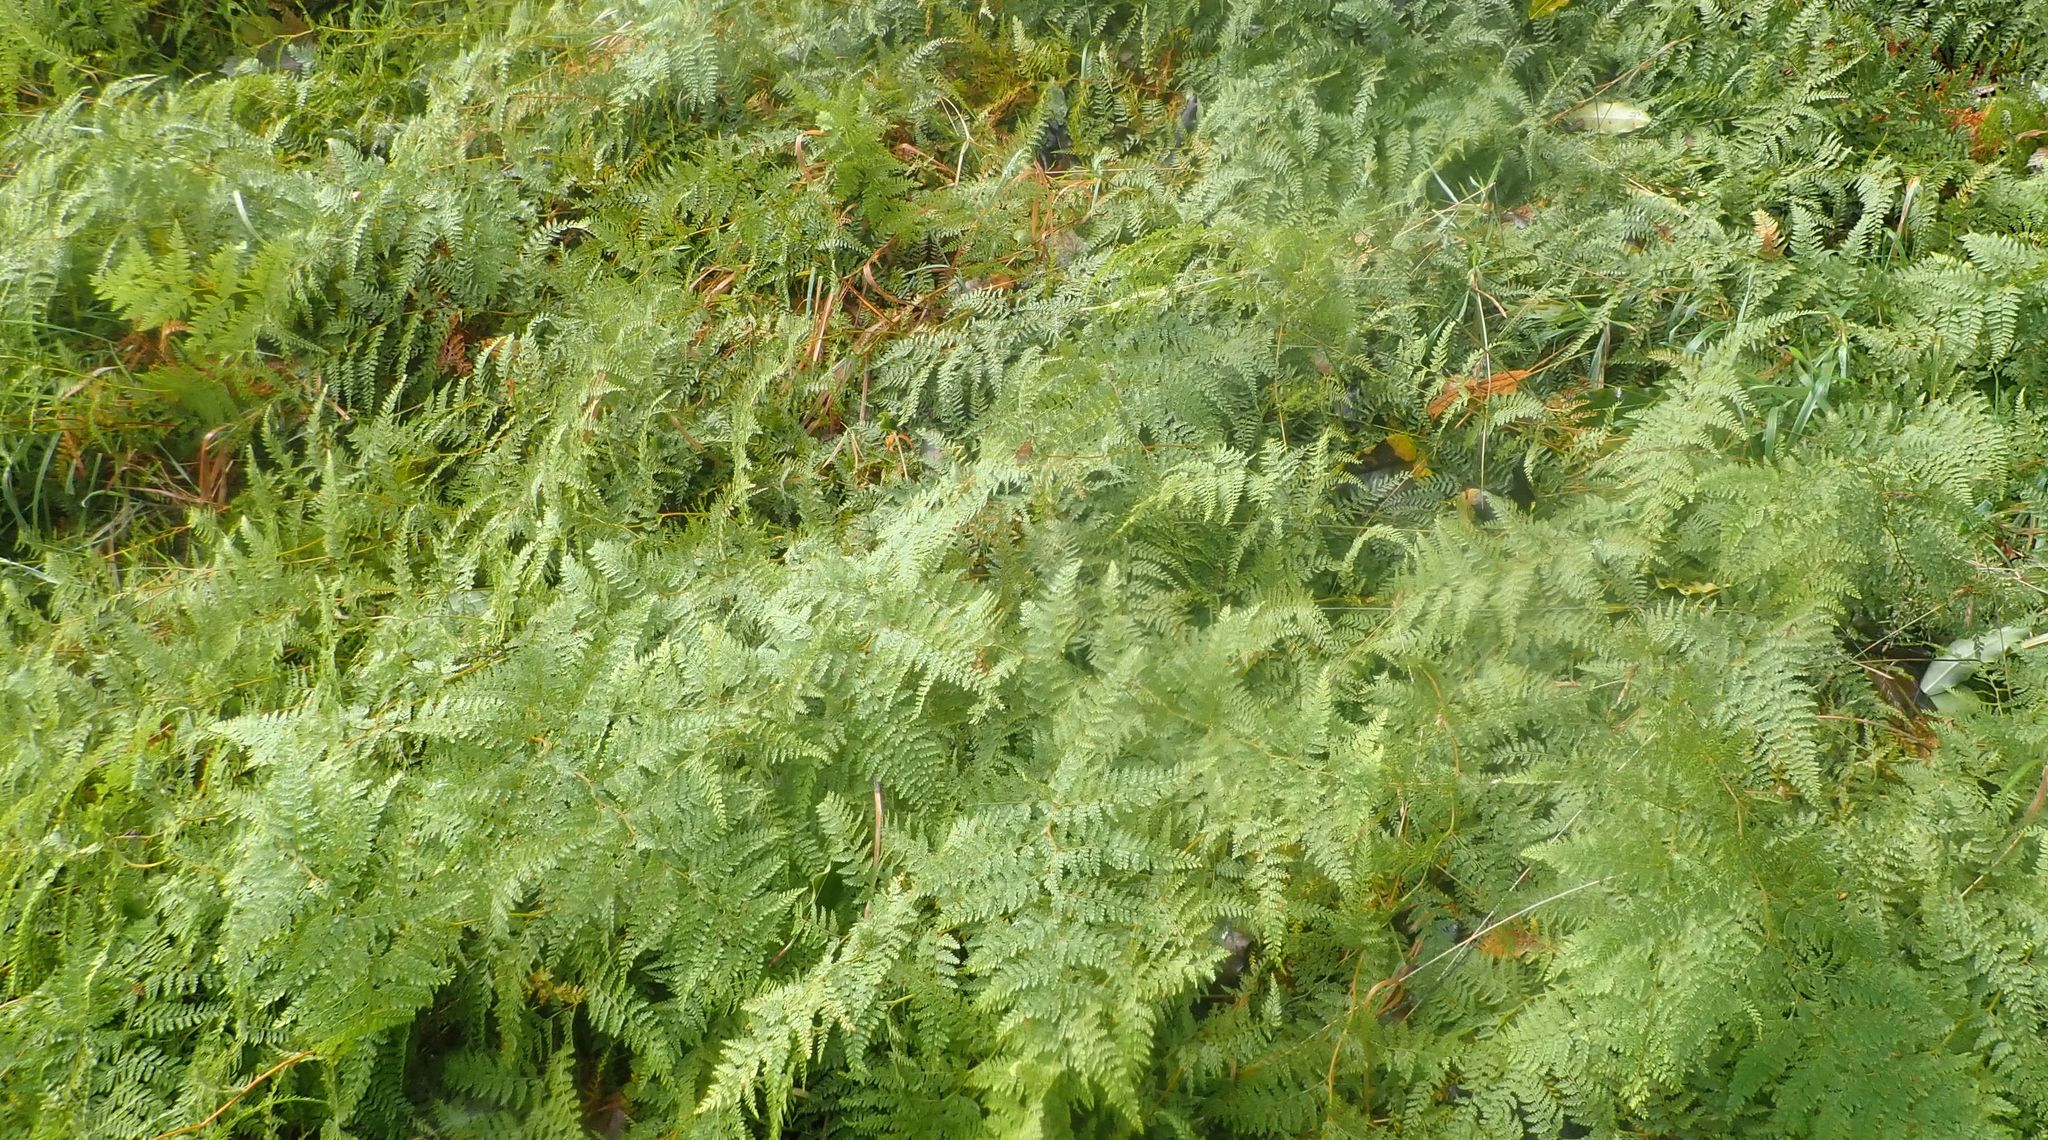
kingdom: Plantae
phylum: Tracheophyta
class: Polypodiopsida
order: Polypodiales
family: Dennstaedtiaceae
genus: Paesia
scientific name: Paesia scaberula
